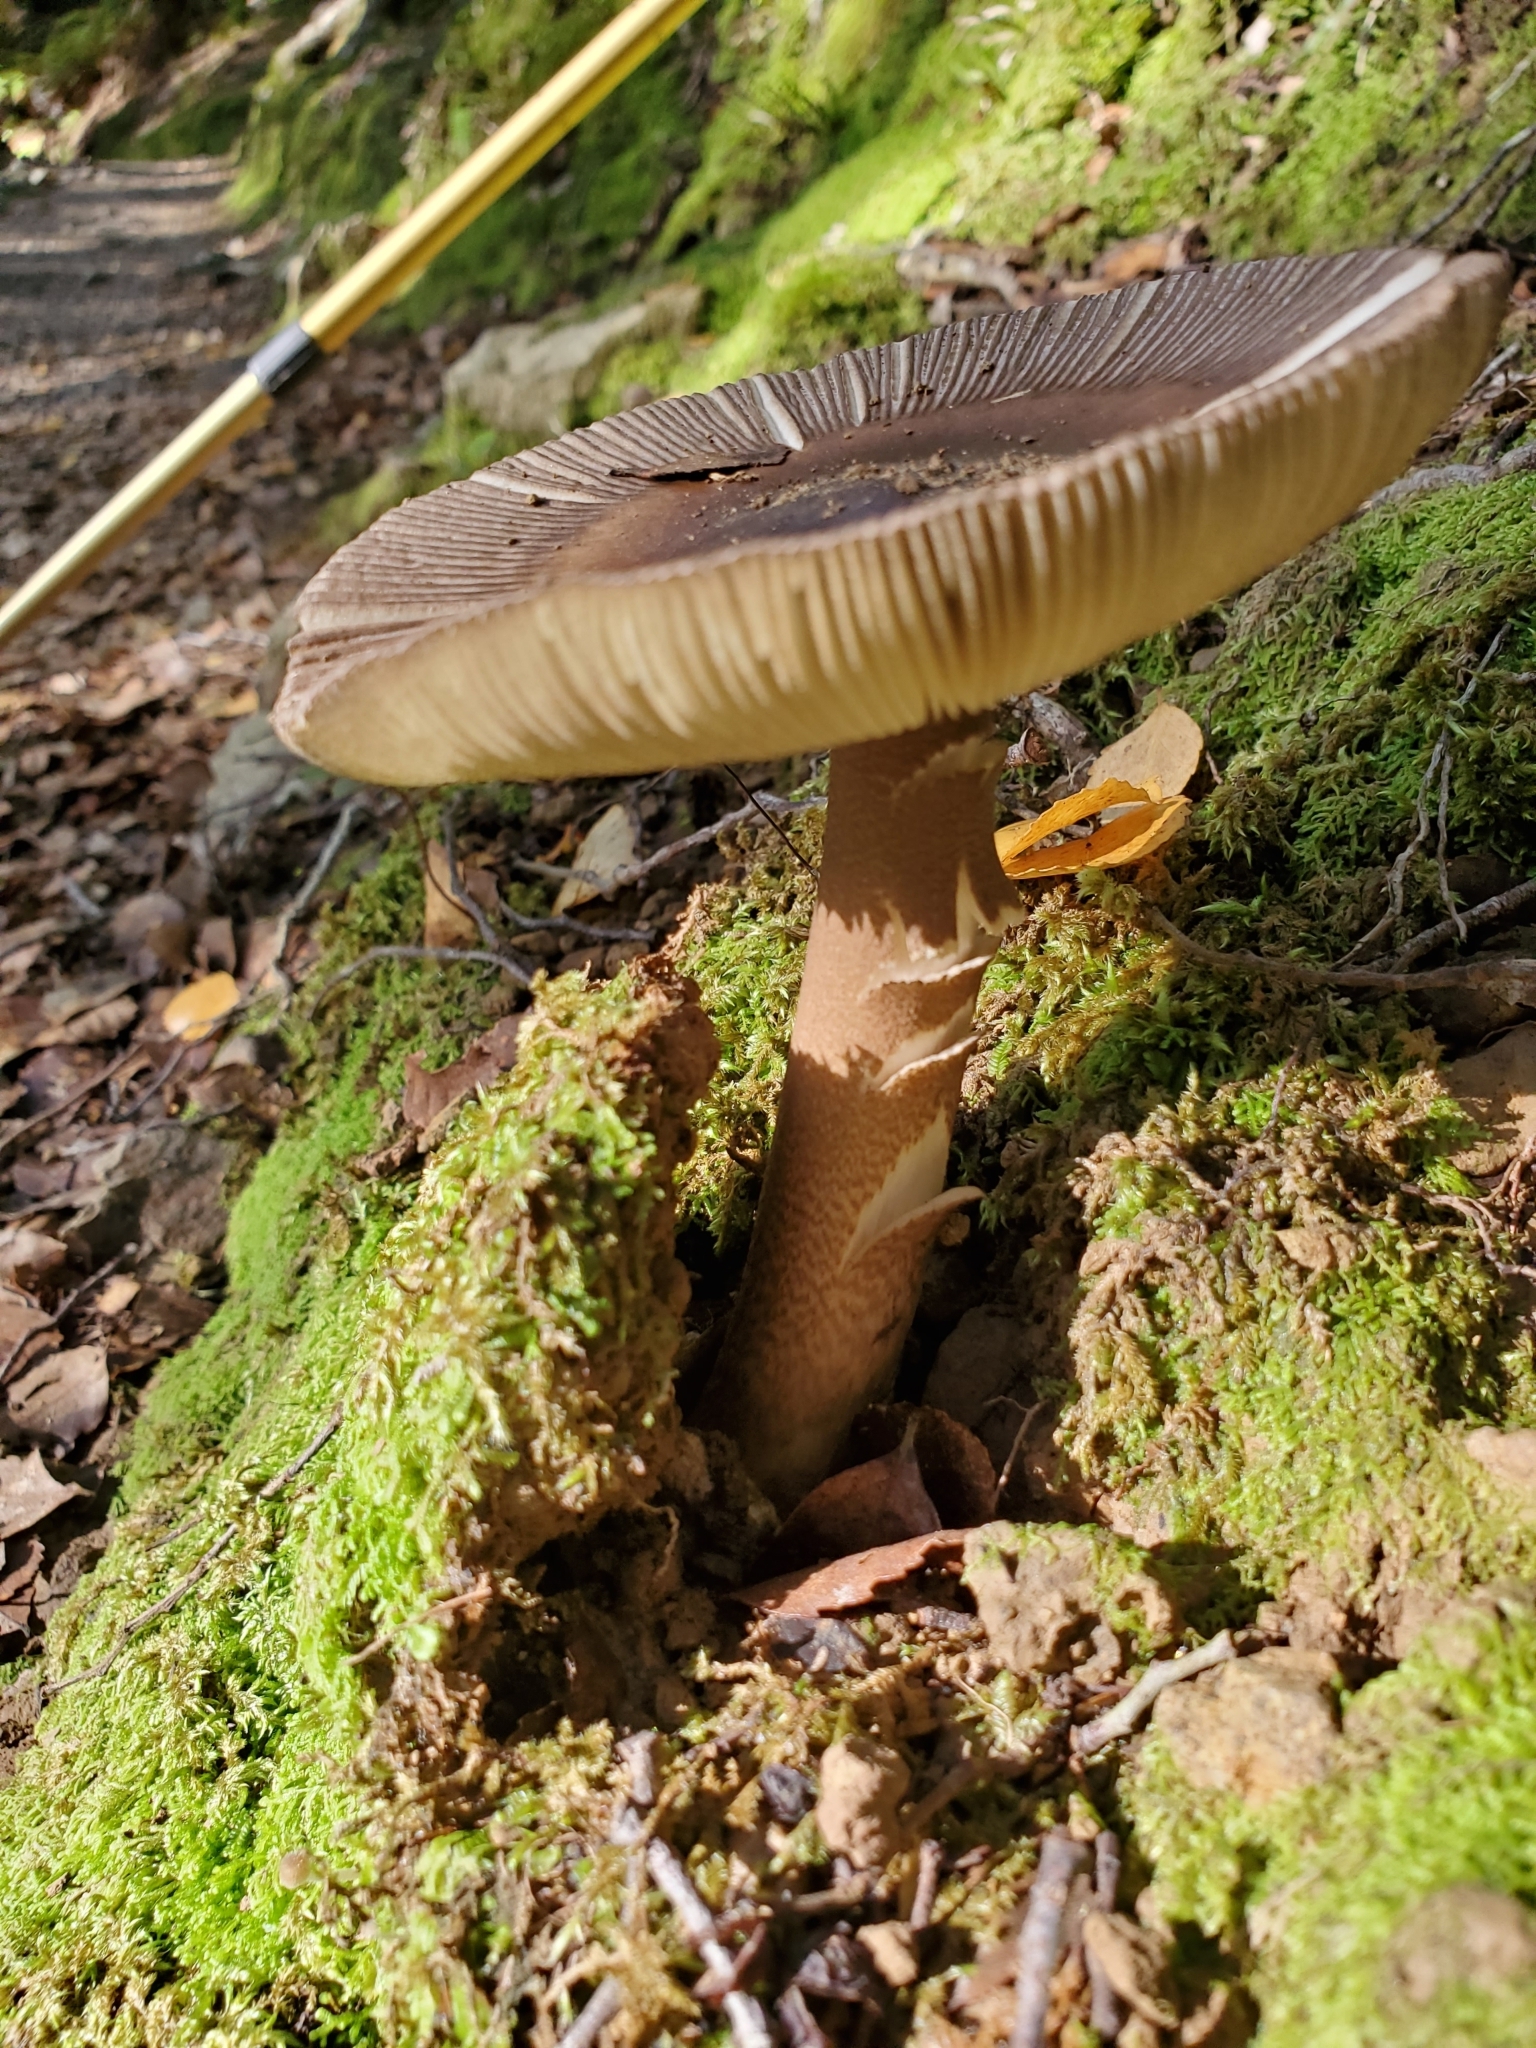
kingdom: Fungi
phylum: Basidiomycota
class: Agaricomycetes
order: Agaricales
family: Amanitaceae
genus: Amanita
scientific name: Amanita pekeoides
